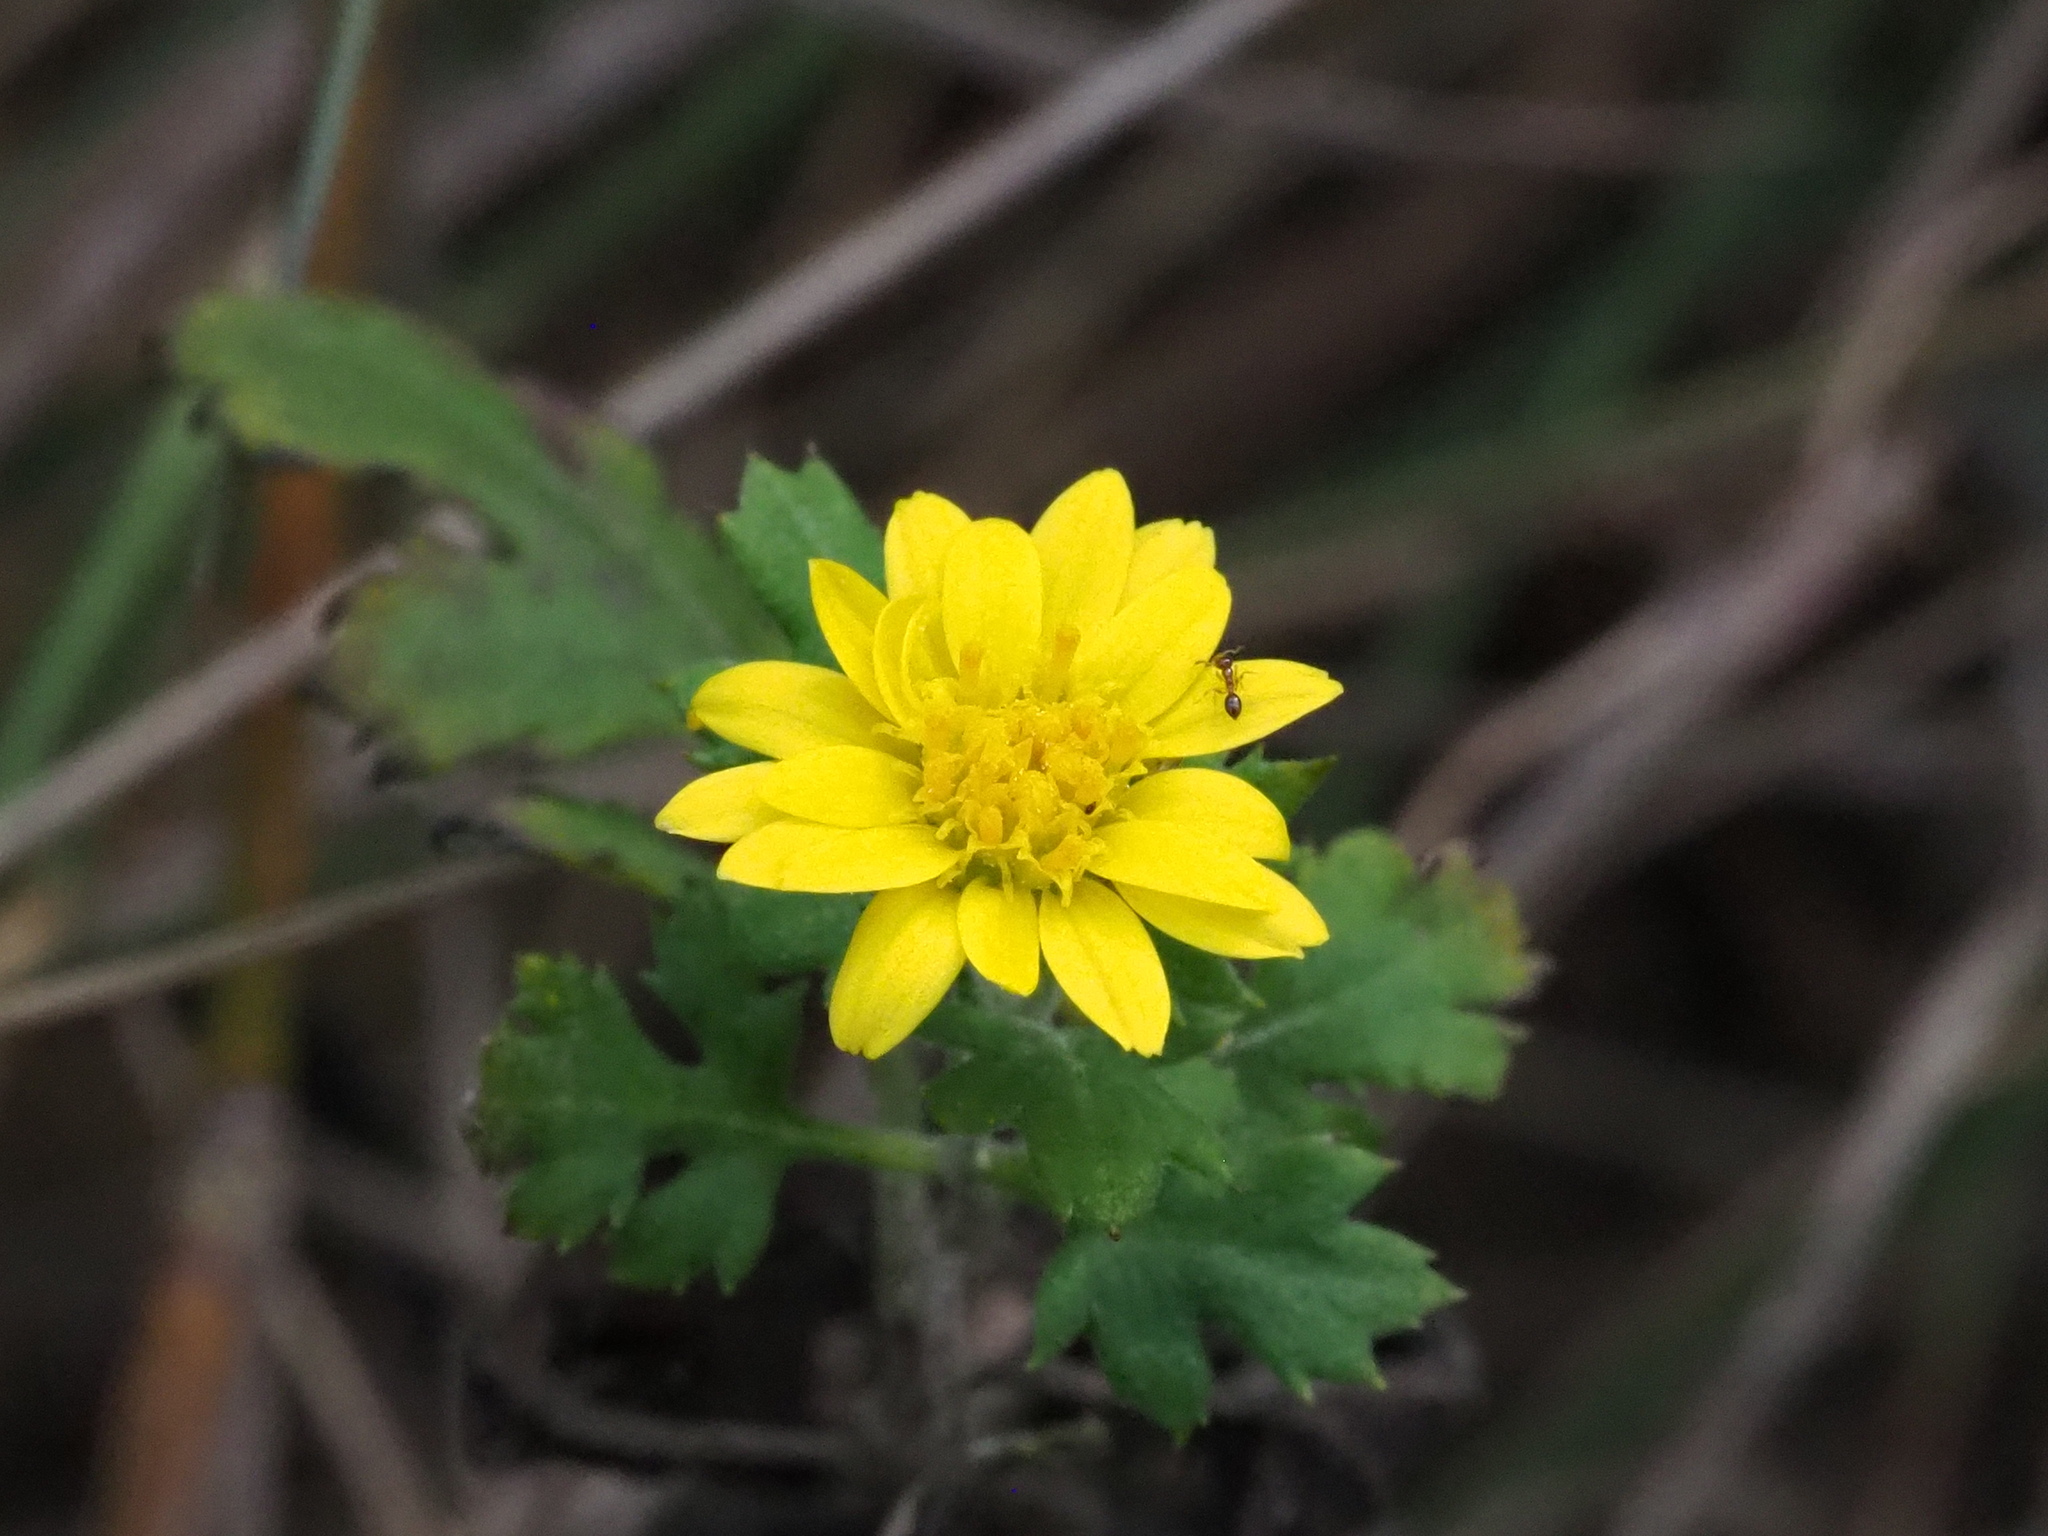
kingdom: Plantae
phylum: Tracheophyta
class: Magnoliopsida
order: Asterales
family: Asteraceae
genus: Chrysanthemum
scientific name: Chrysanthemum lavandulifolium
